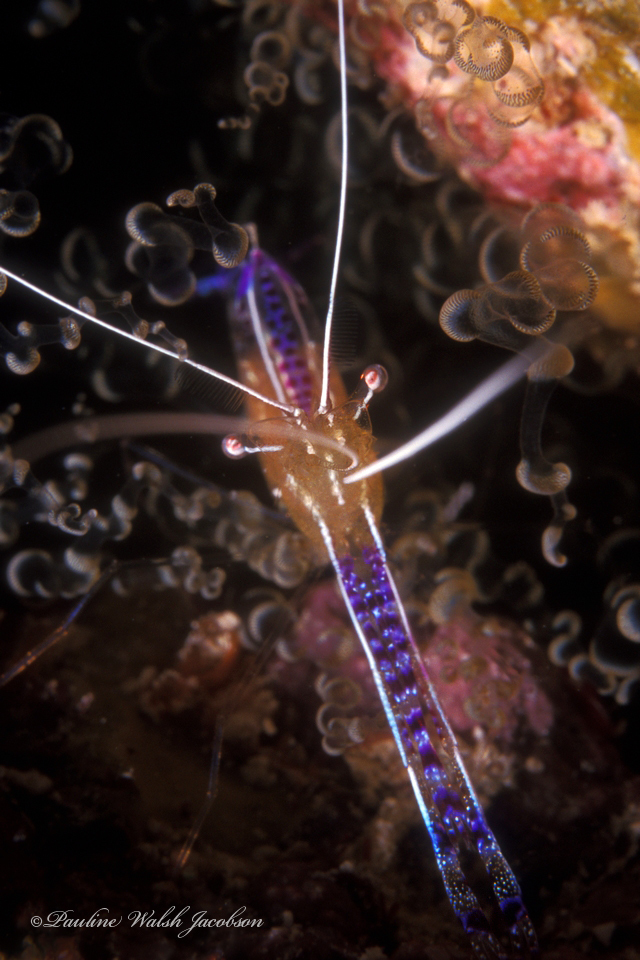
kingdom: Animalia
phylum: Arthropoda
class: Malacostraca
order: Decapoda
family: Palaemonidae
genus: Ancylomenes
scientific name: Ancylomenes pedersoni
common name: Pederson's cleaning shrimp
